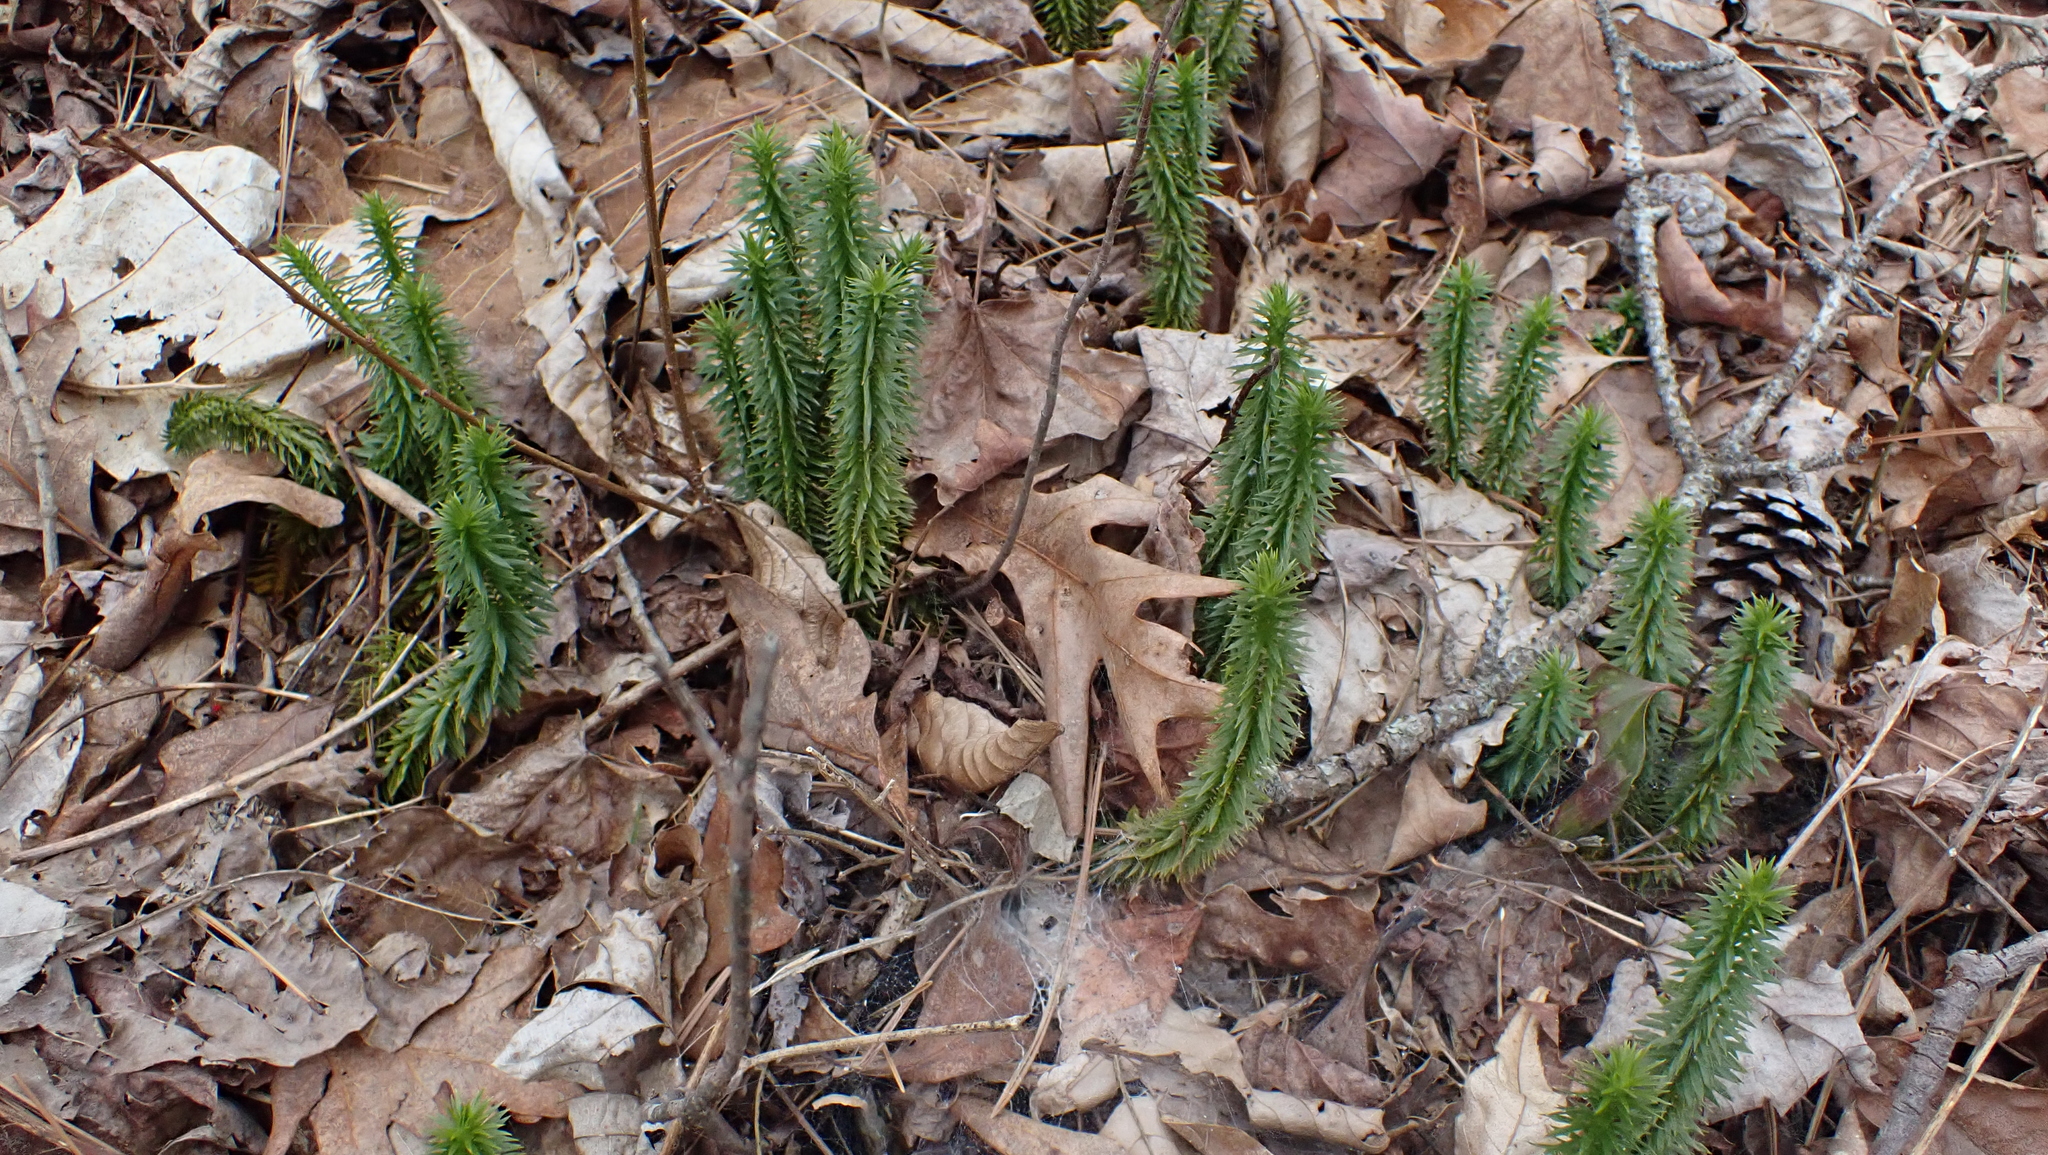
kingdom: Plantae
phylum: Tracheophyta
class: Lycopodiopsida
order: Lycopodiales
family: Lycopodiaceae
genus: Huperzia
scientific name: Huperzia lucidula
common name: Shining clubmoss
